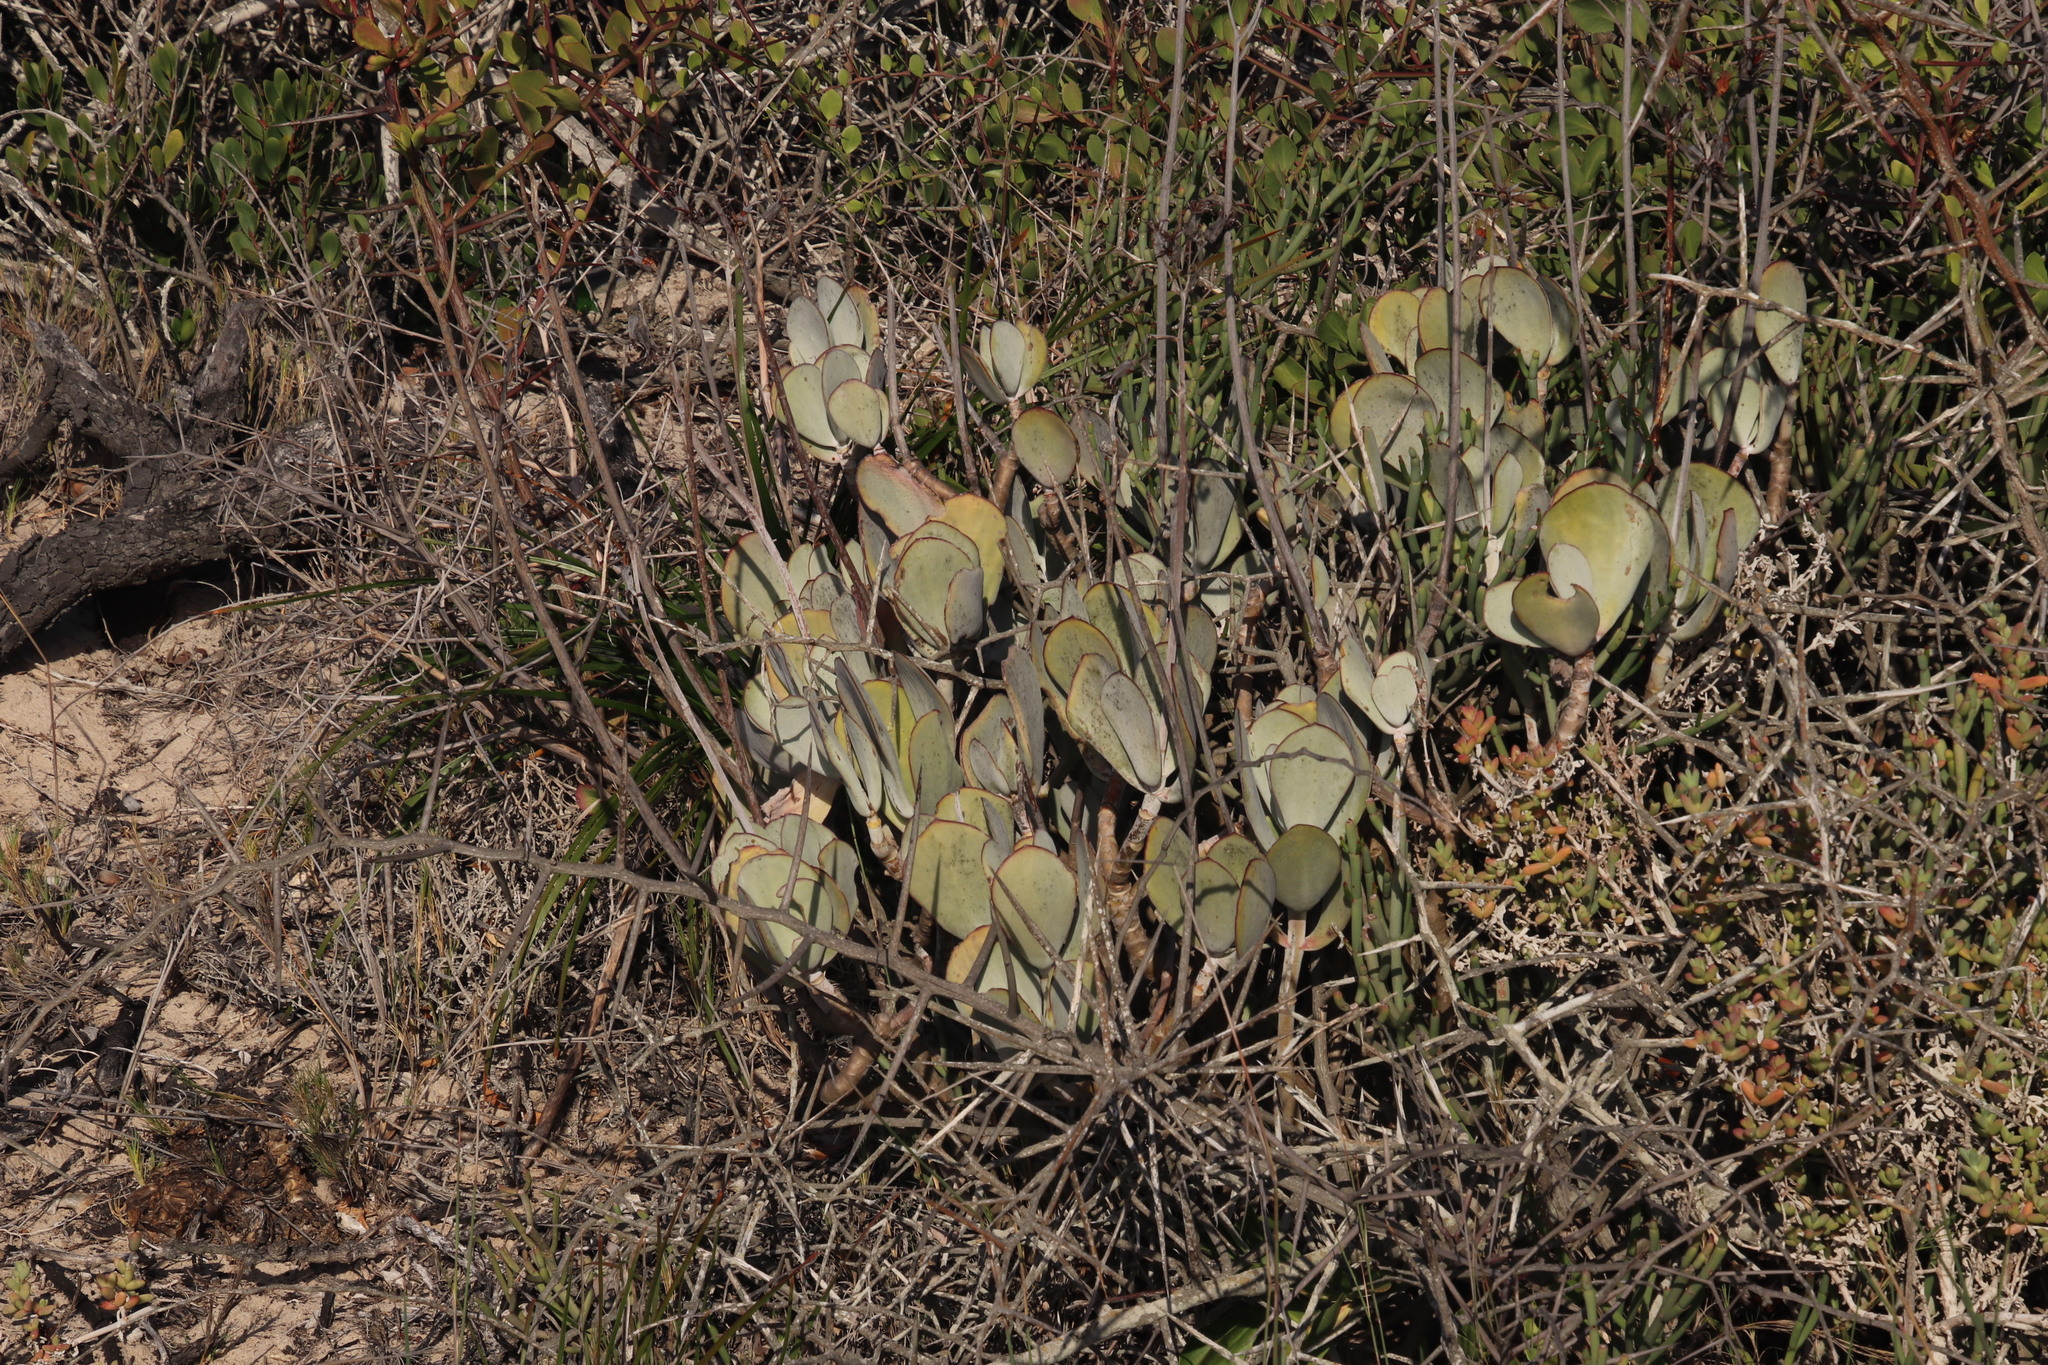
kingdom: Plantae
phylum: Tracheophyta
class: Magnoliopsida
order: Saxifragales
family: Crassulaceae
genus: Cotyledon
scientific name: Cotyledon orbiculata
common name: Pig's ear
